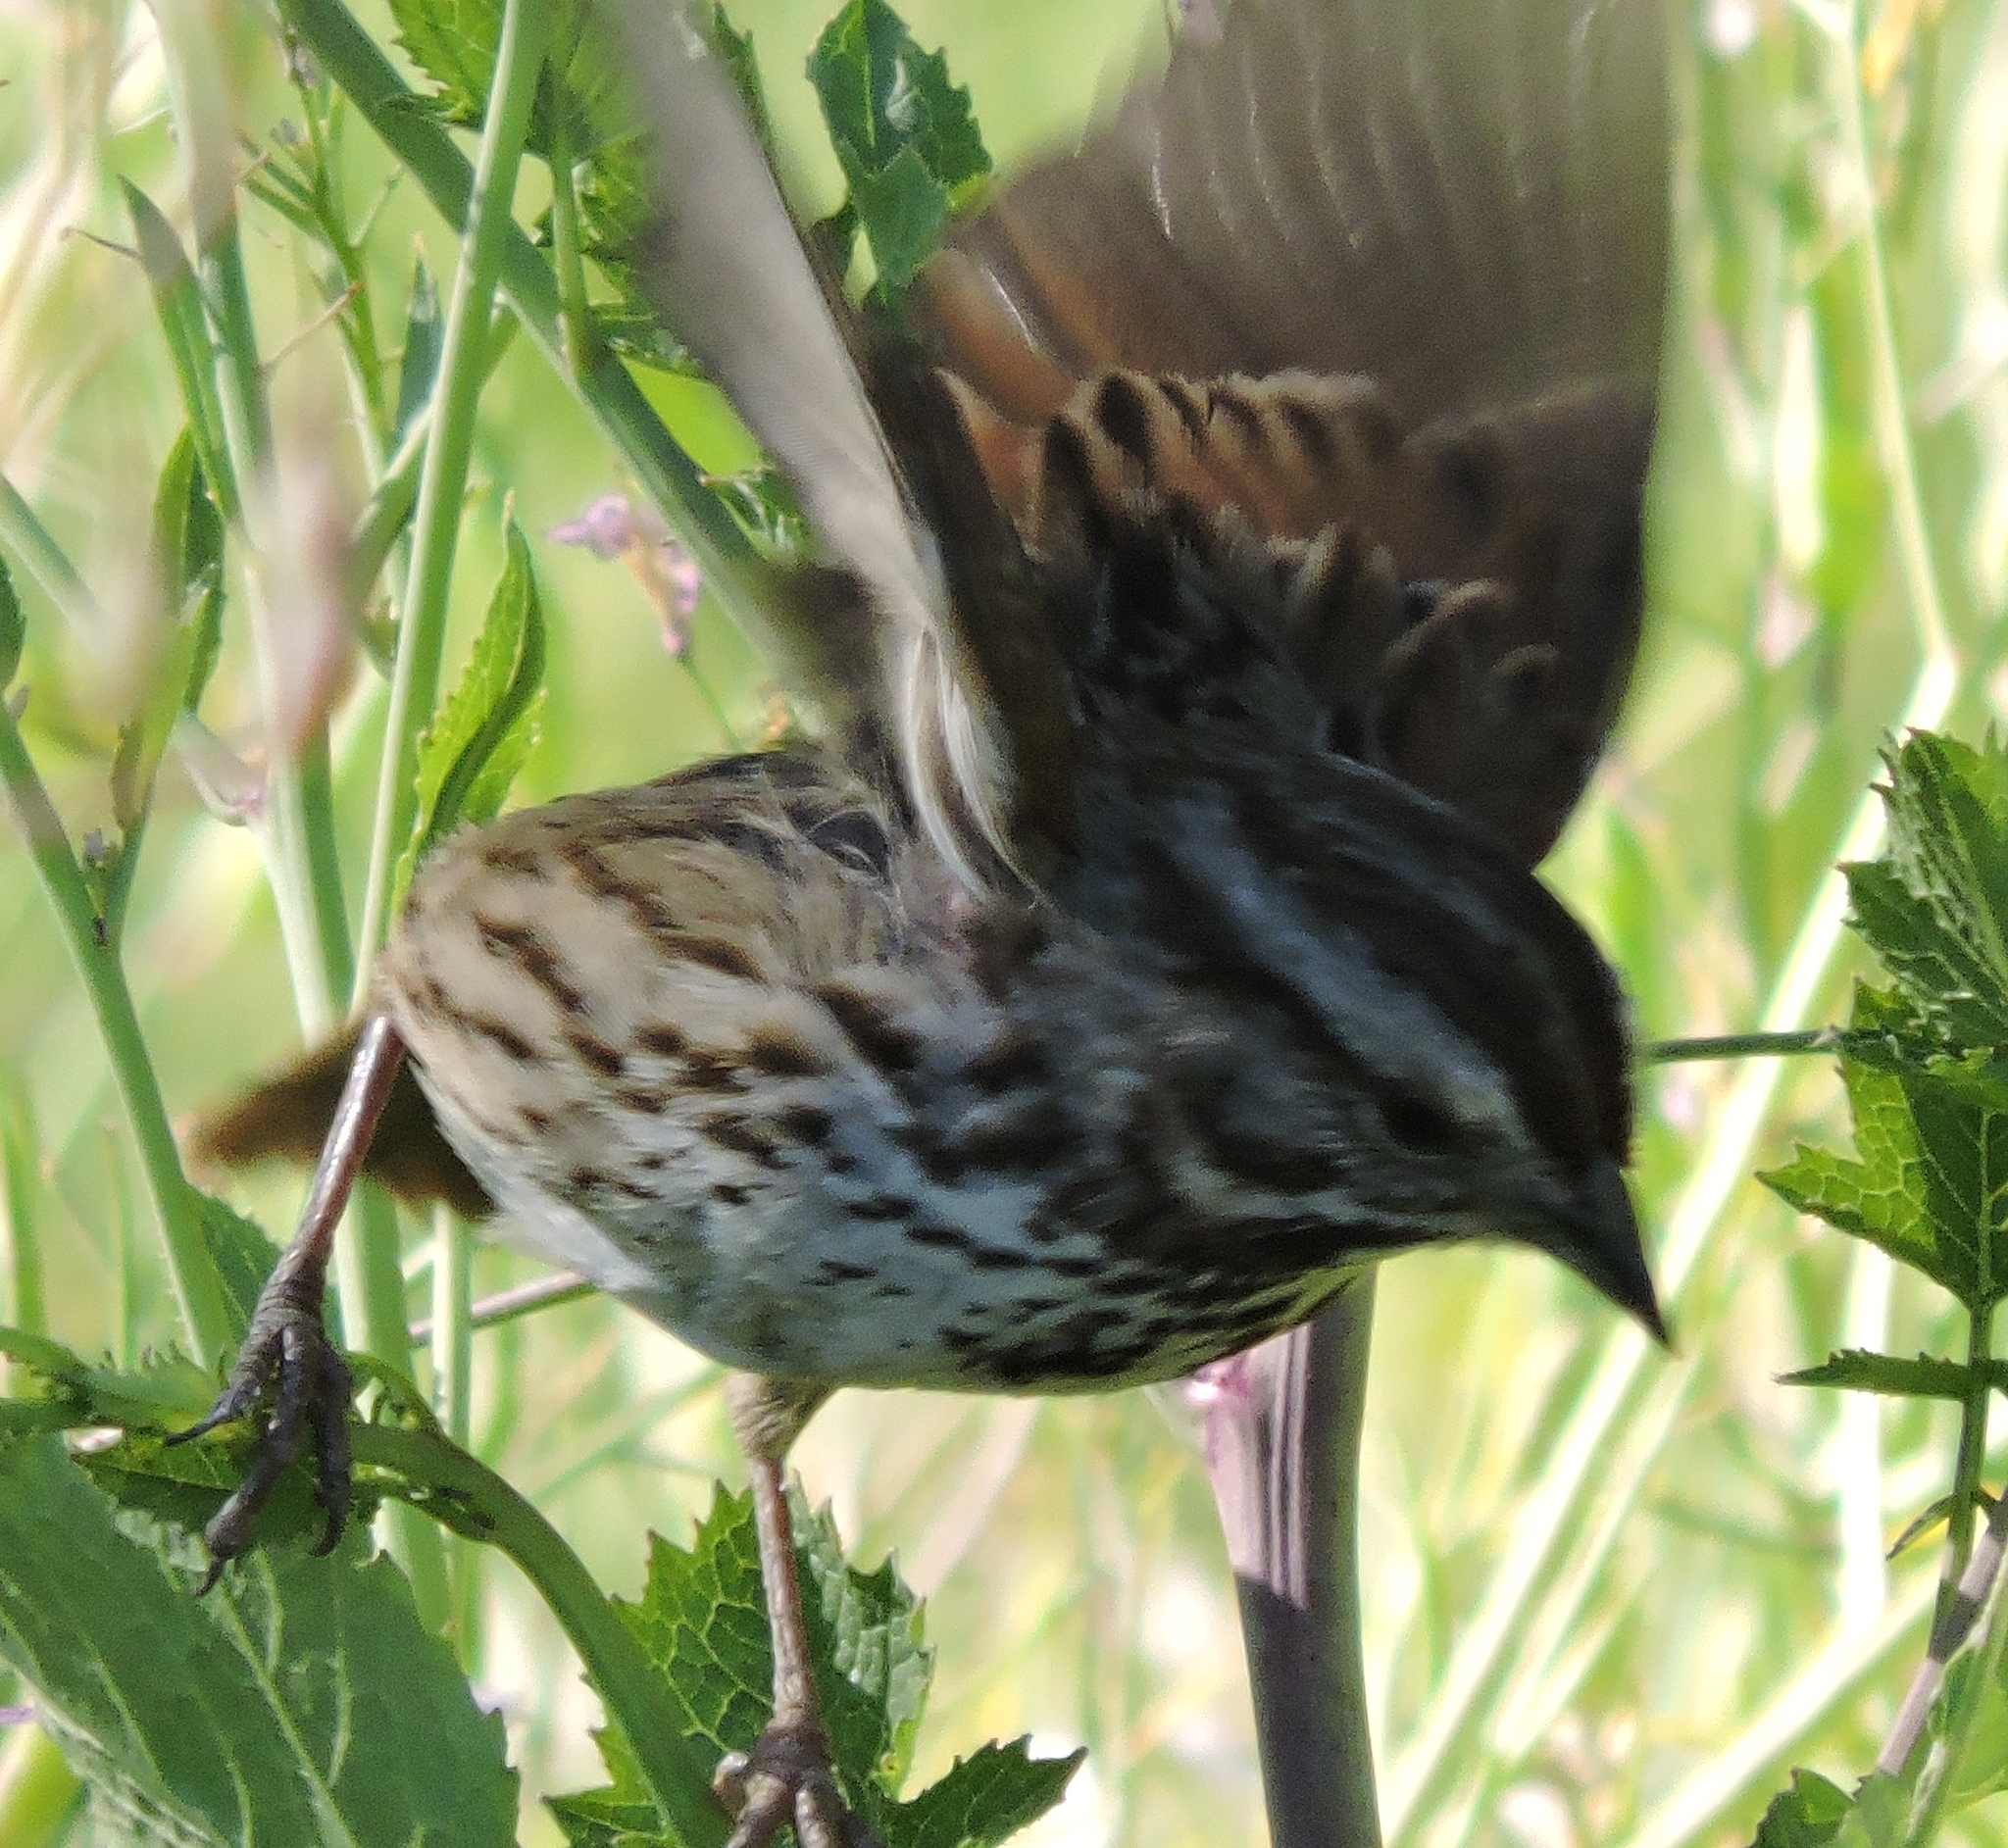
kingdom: Animalia
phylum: Chordata
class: Aves
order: Passeriformes
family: Passerellidae
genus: Melospiza
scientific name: Melospiza melodia
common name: Song sparrow
